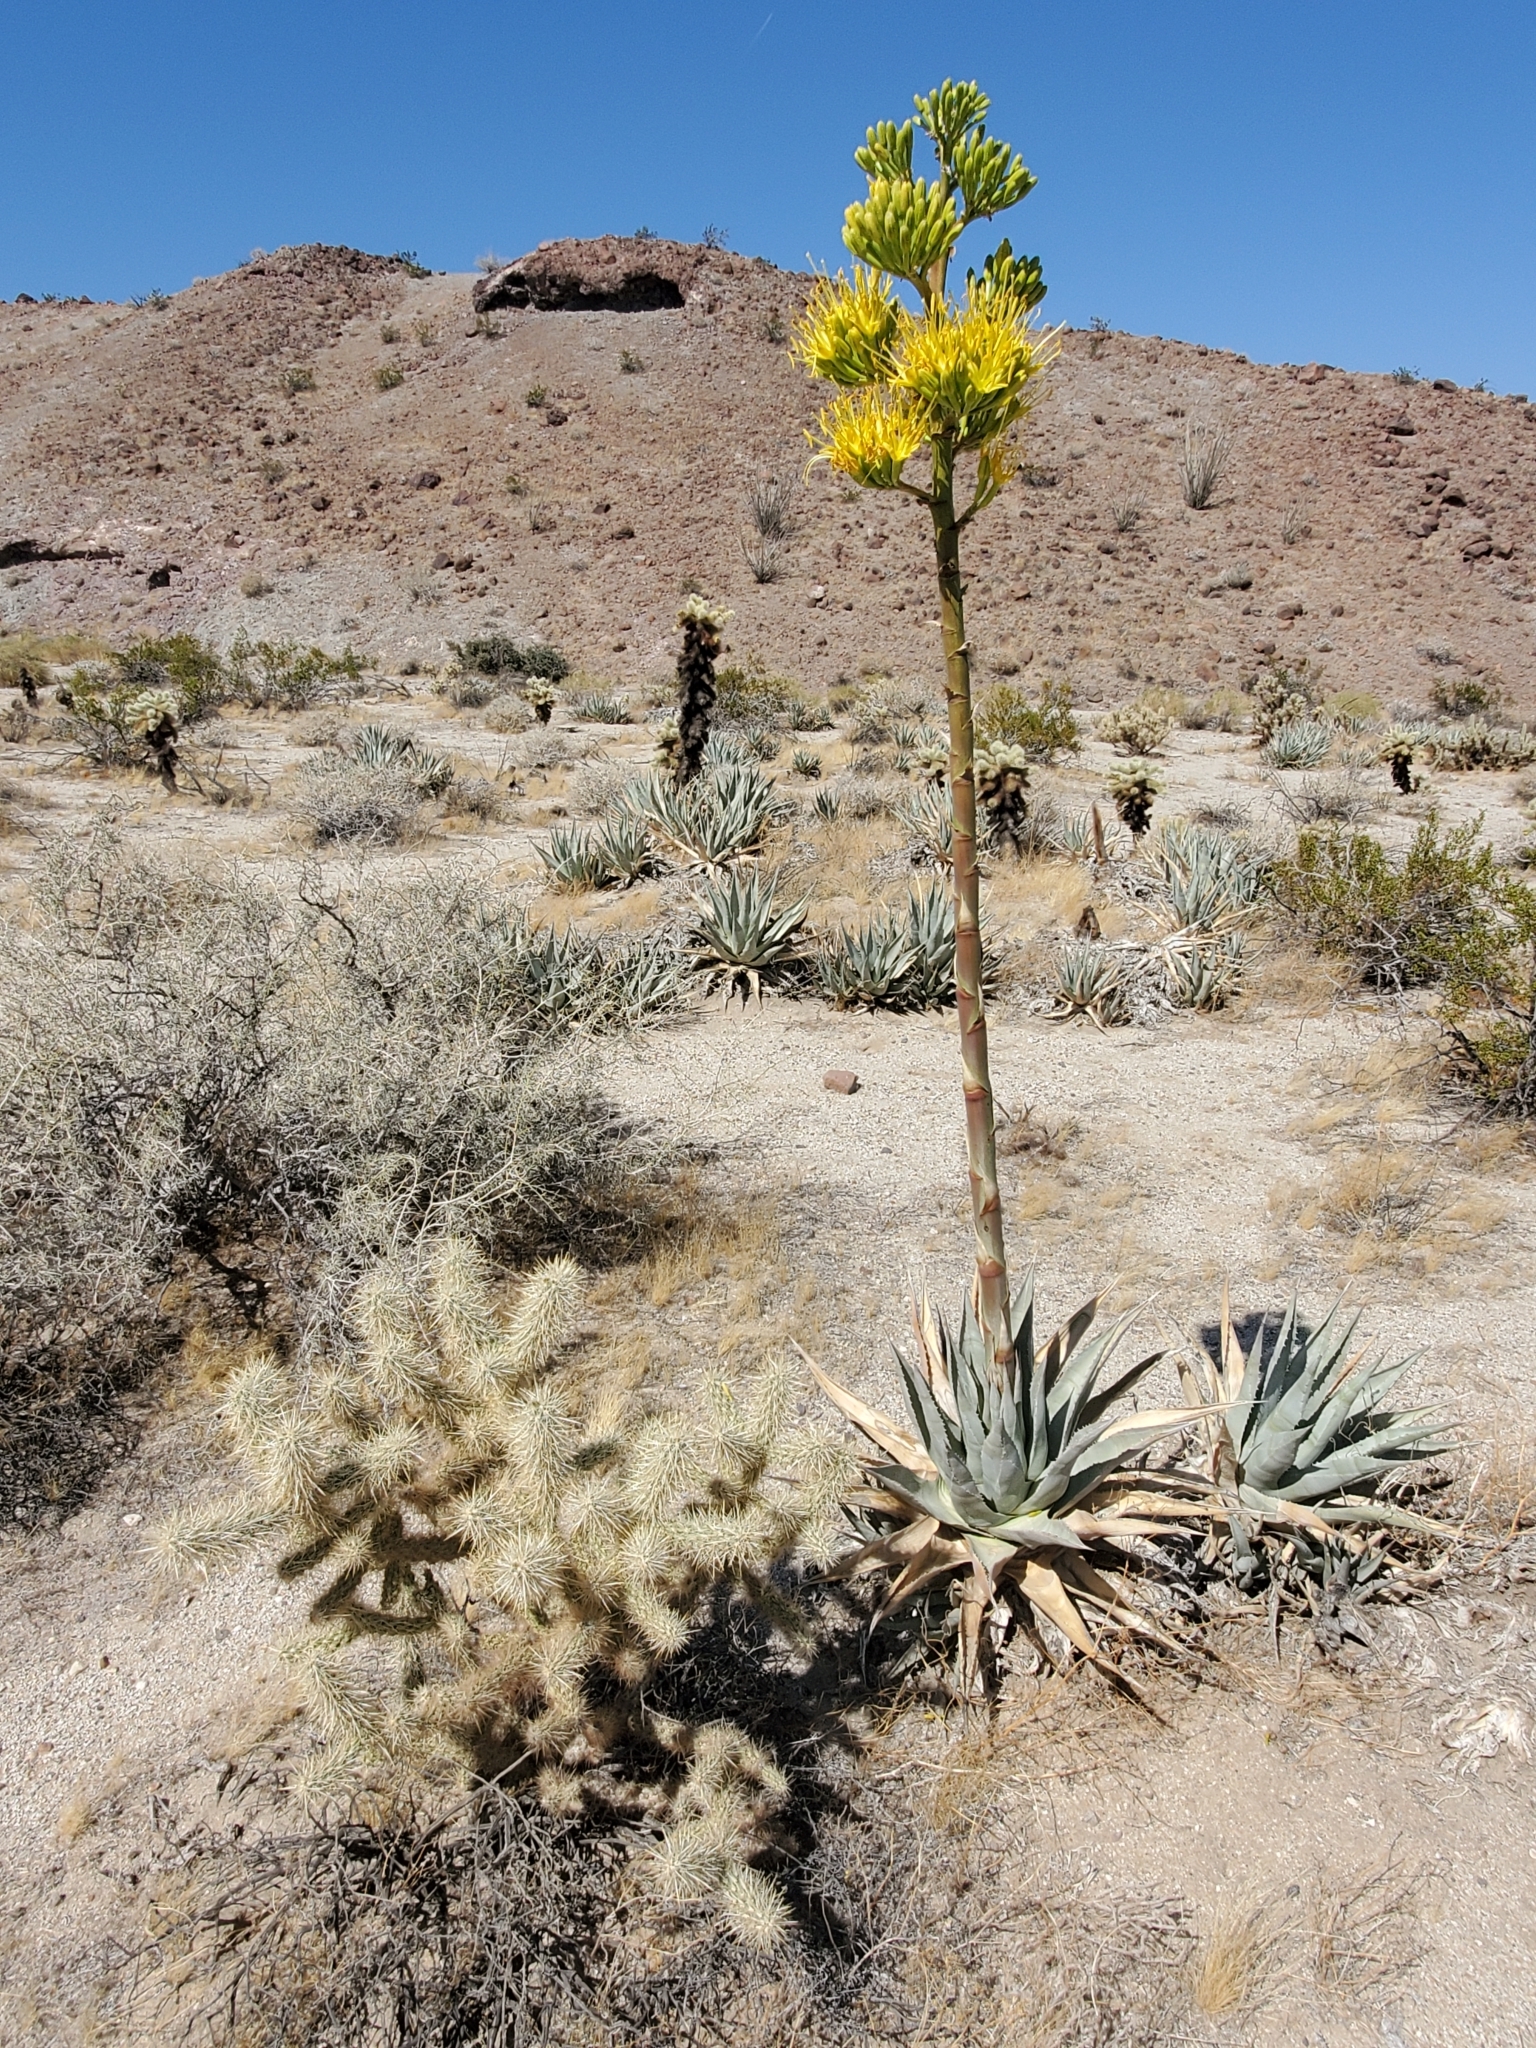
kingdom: Plantae
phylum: Tracheophyta
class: Liliopsida
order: Asparagales
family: Asparagaceae
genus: Agave
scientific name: Agave deserti
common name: Desert agave
